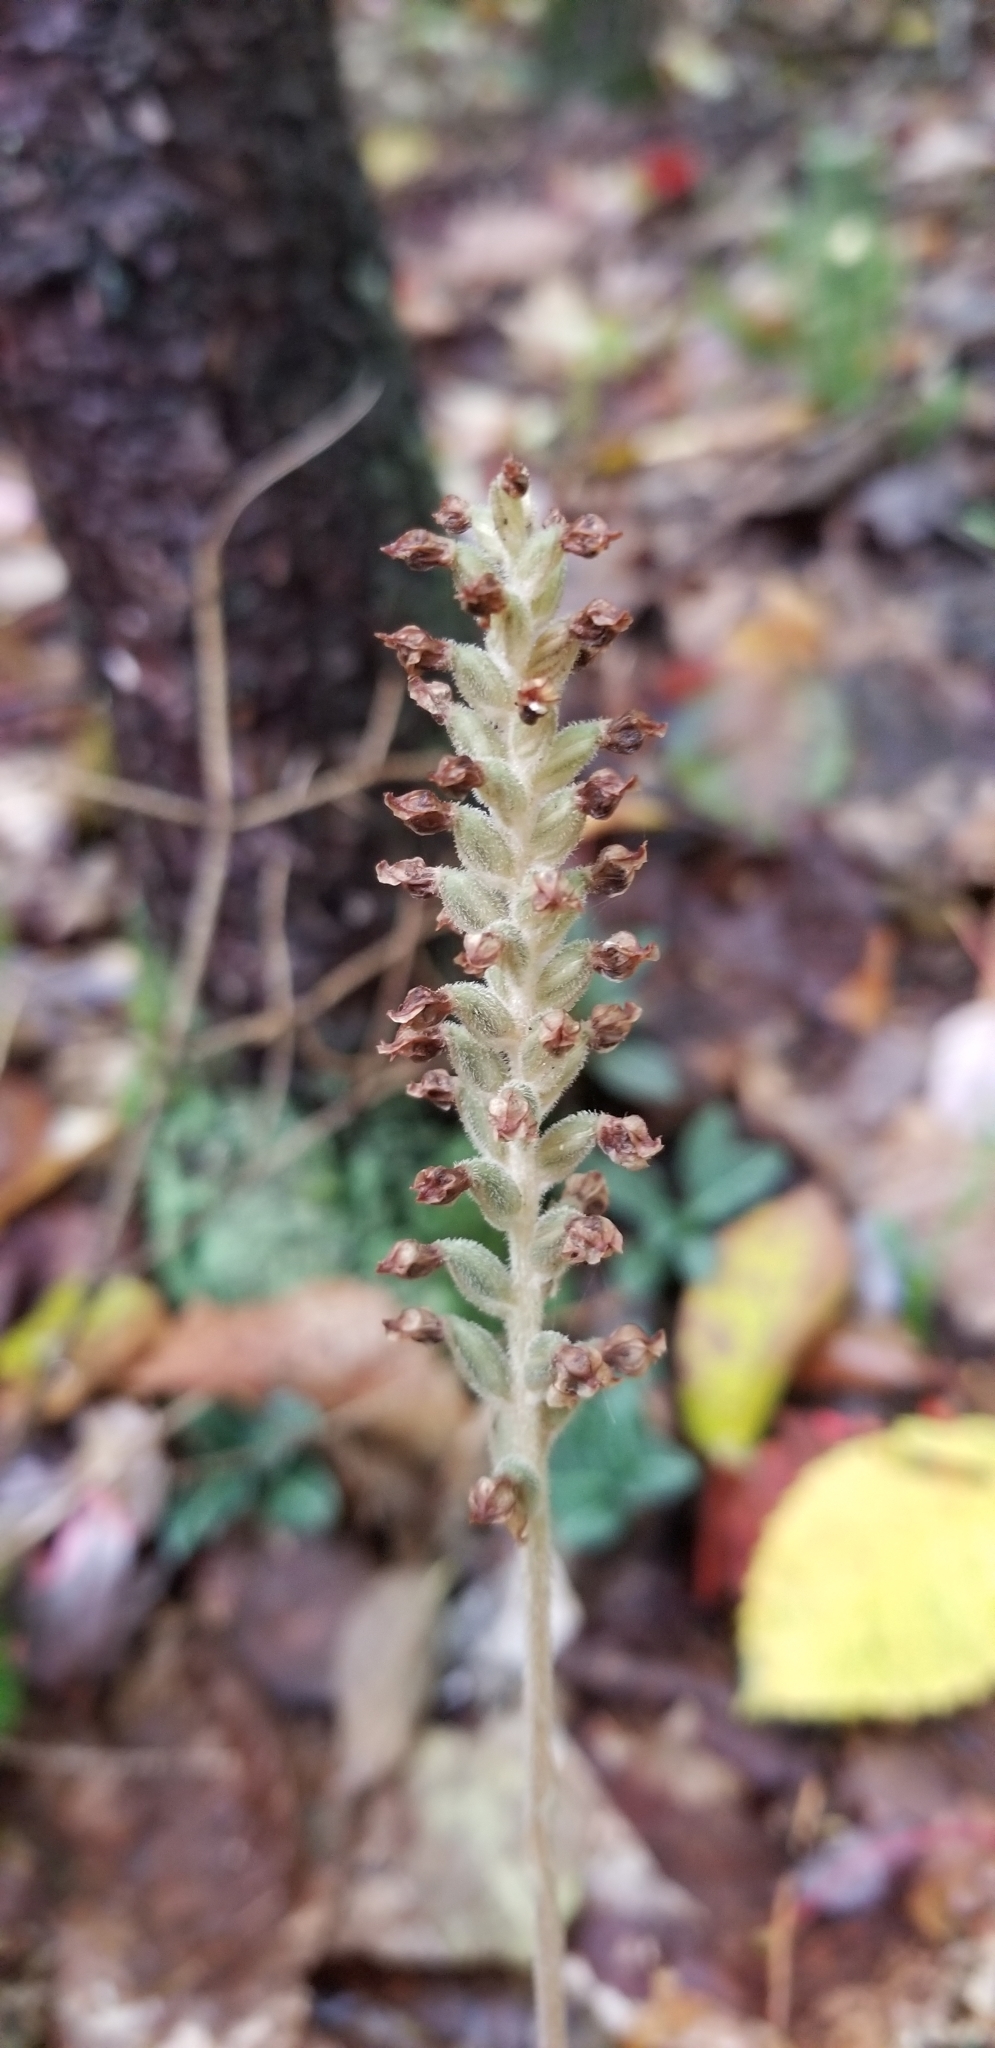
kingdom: Plantae
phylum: Tracheophyta
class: Liliopsida
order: Asparagales
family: Orchidaceae
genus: Goodyera
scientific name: Goodyera pubescens
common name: Downy rattlesnake-plantain
